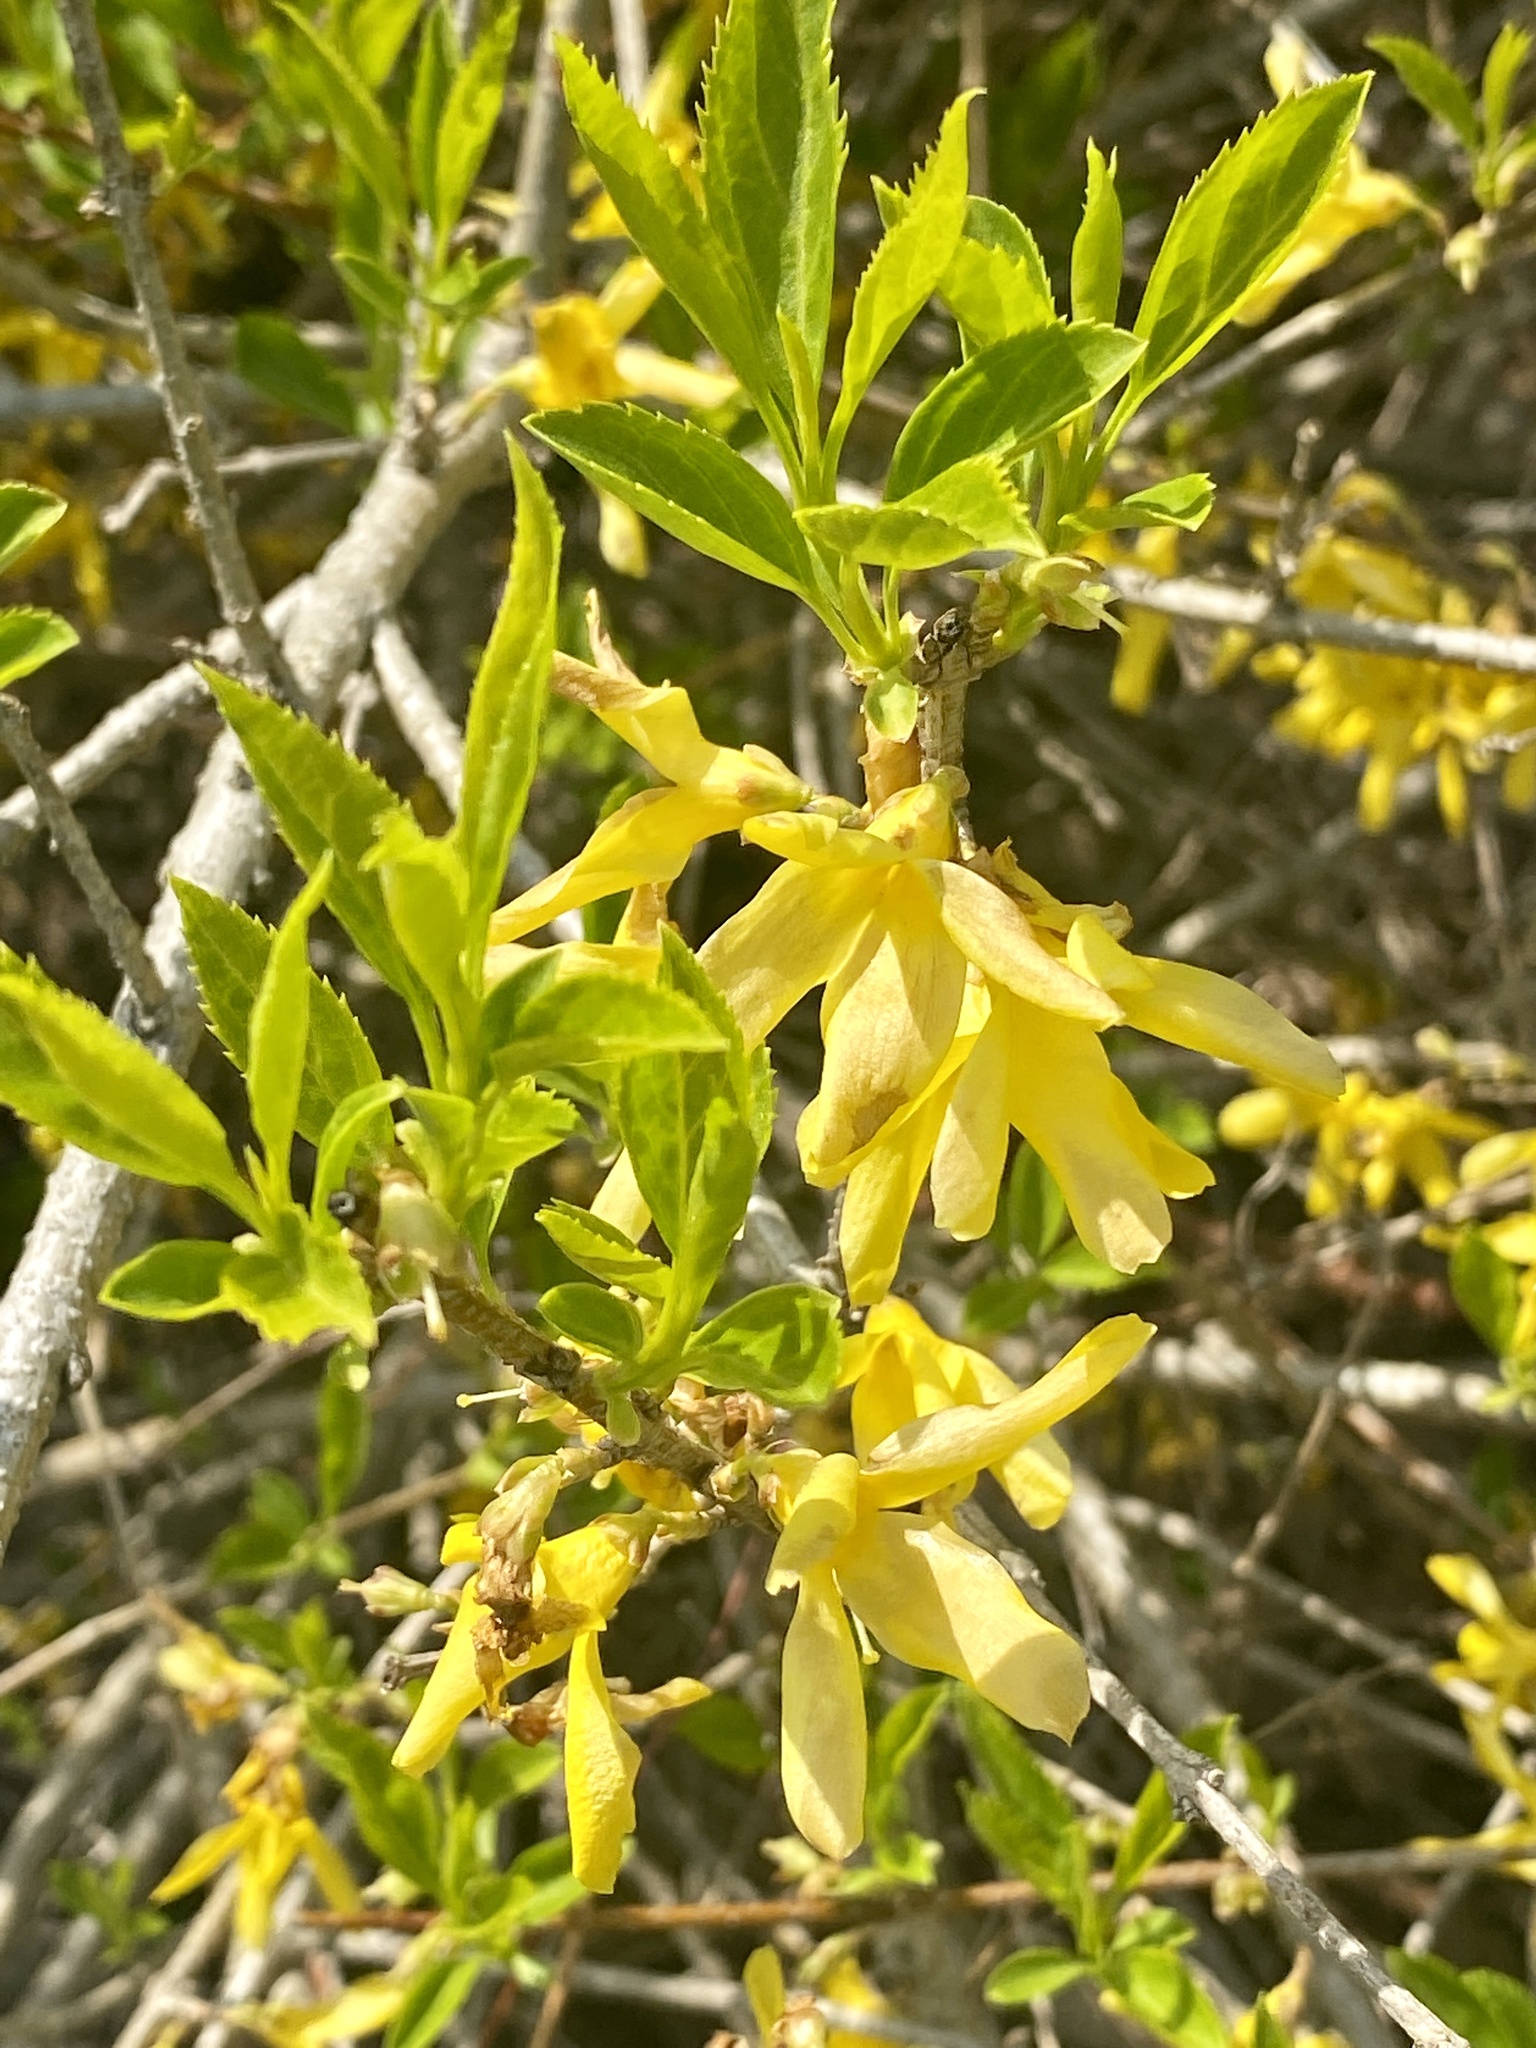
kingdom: Plantae
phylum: Tracheophyta
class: Magnoliopsida
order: Lamiales
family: Oleaceae
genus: Forsythia
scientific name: Forsythia intermedia
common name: Forsythia
